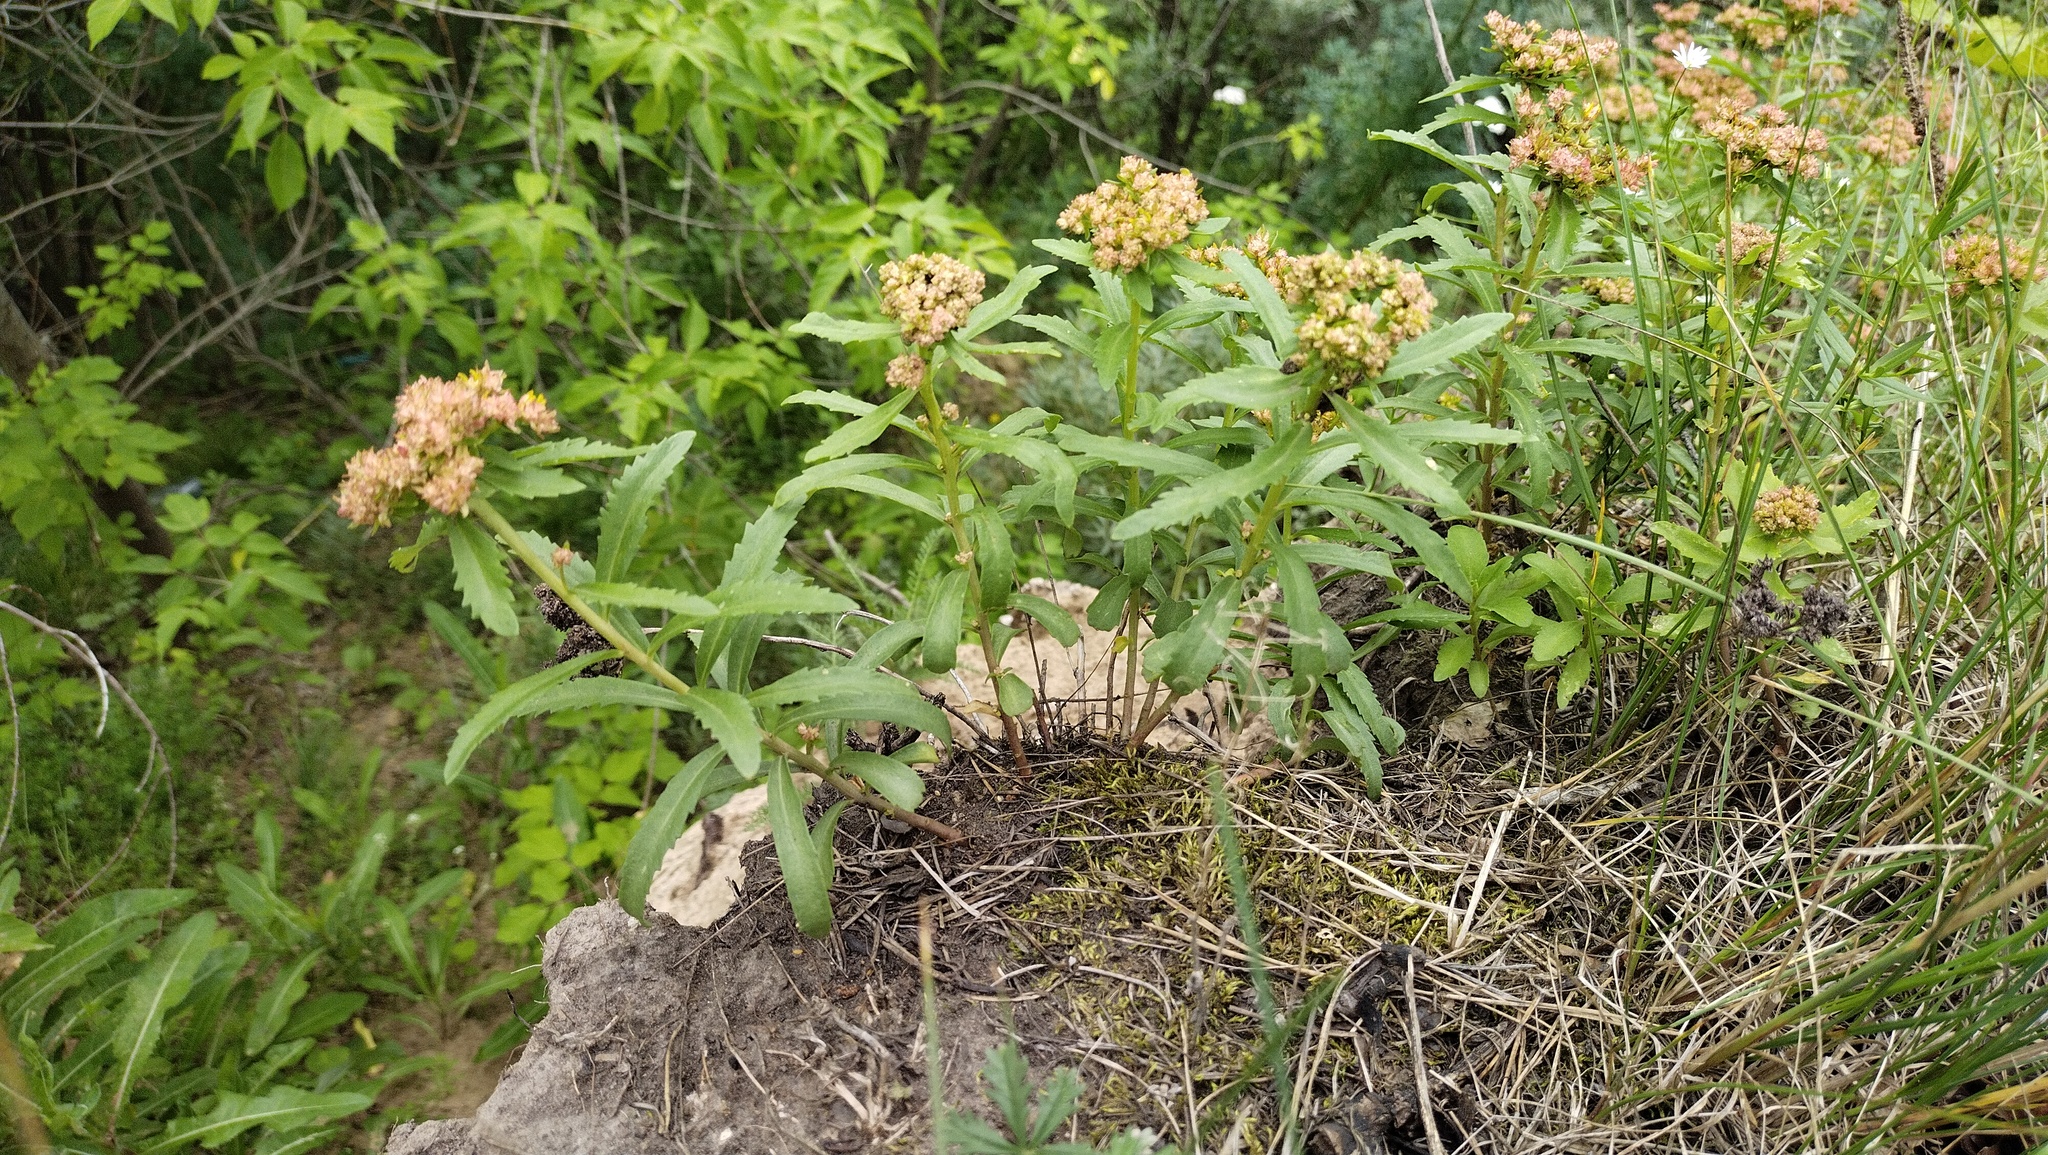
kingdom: Plantae
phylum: Tracheophyta
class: Magnoliopsida
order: Saxifragales
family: Crassulaceae
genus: Phedimus
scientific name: Phedimus aizoon
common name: Orpin aizoon
